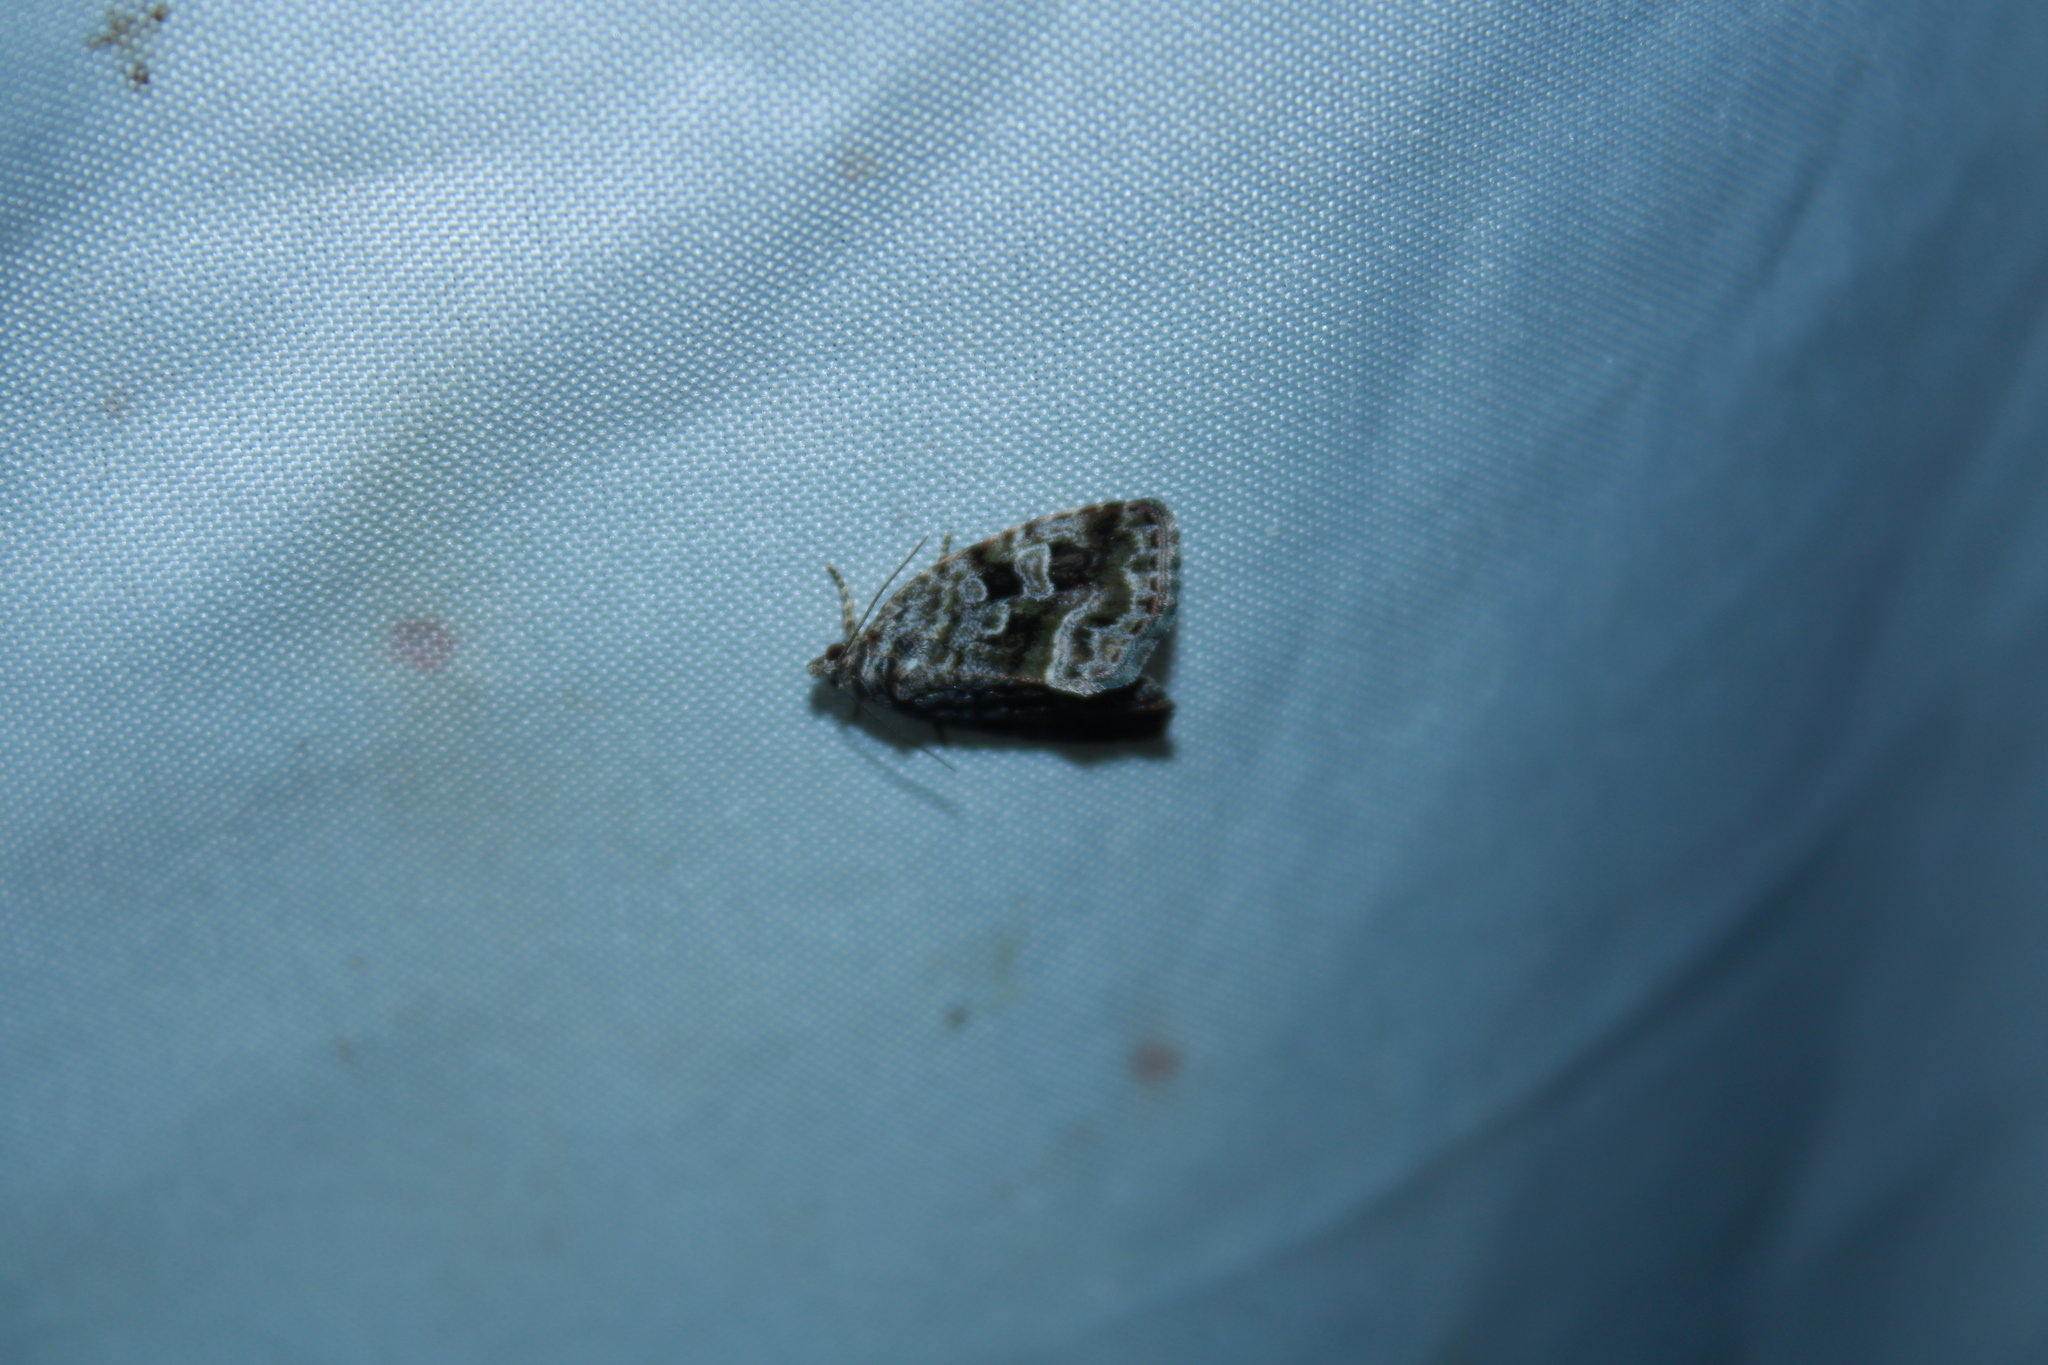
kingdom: Animalia
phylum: Arthropoda
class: Insecta
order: Lepidoptera
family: Noctuidae
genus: Protodeltote
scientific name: Protodeltote muscosula
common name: Large mossy glyph
